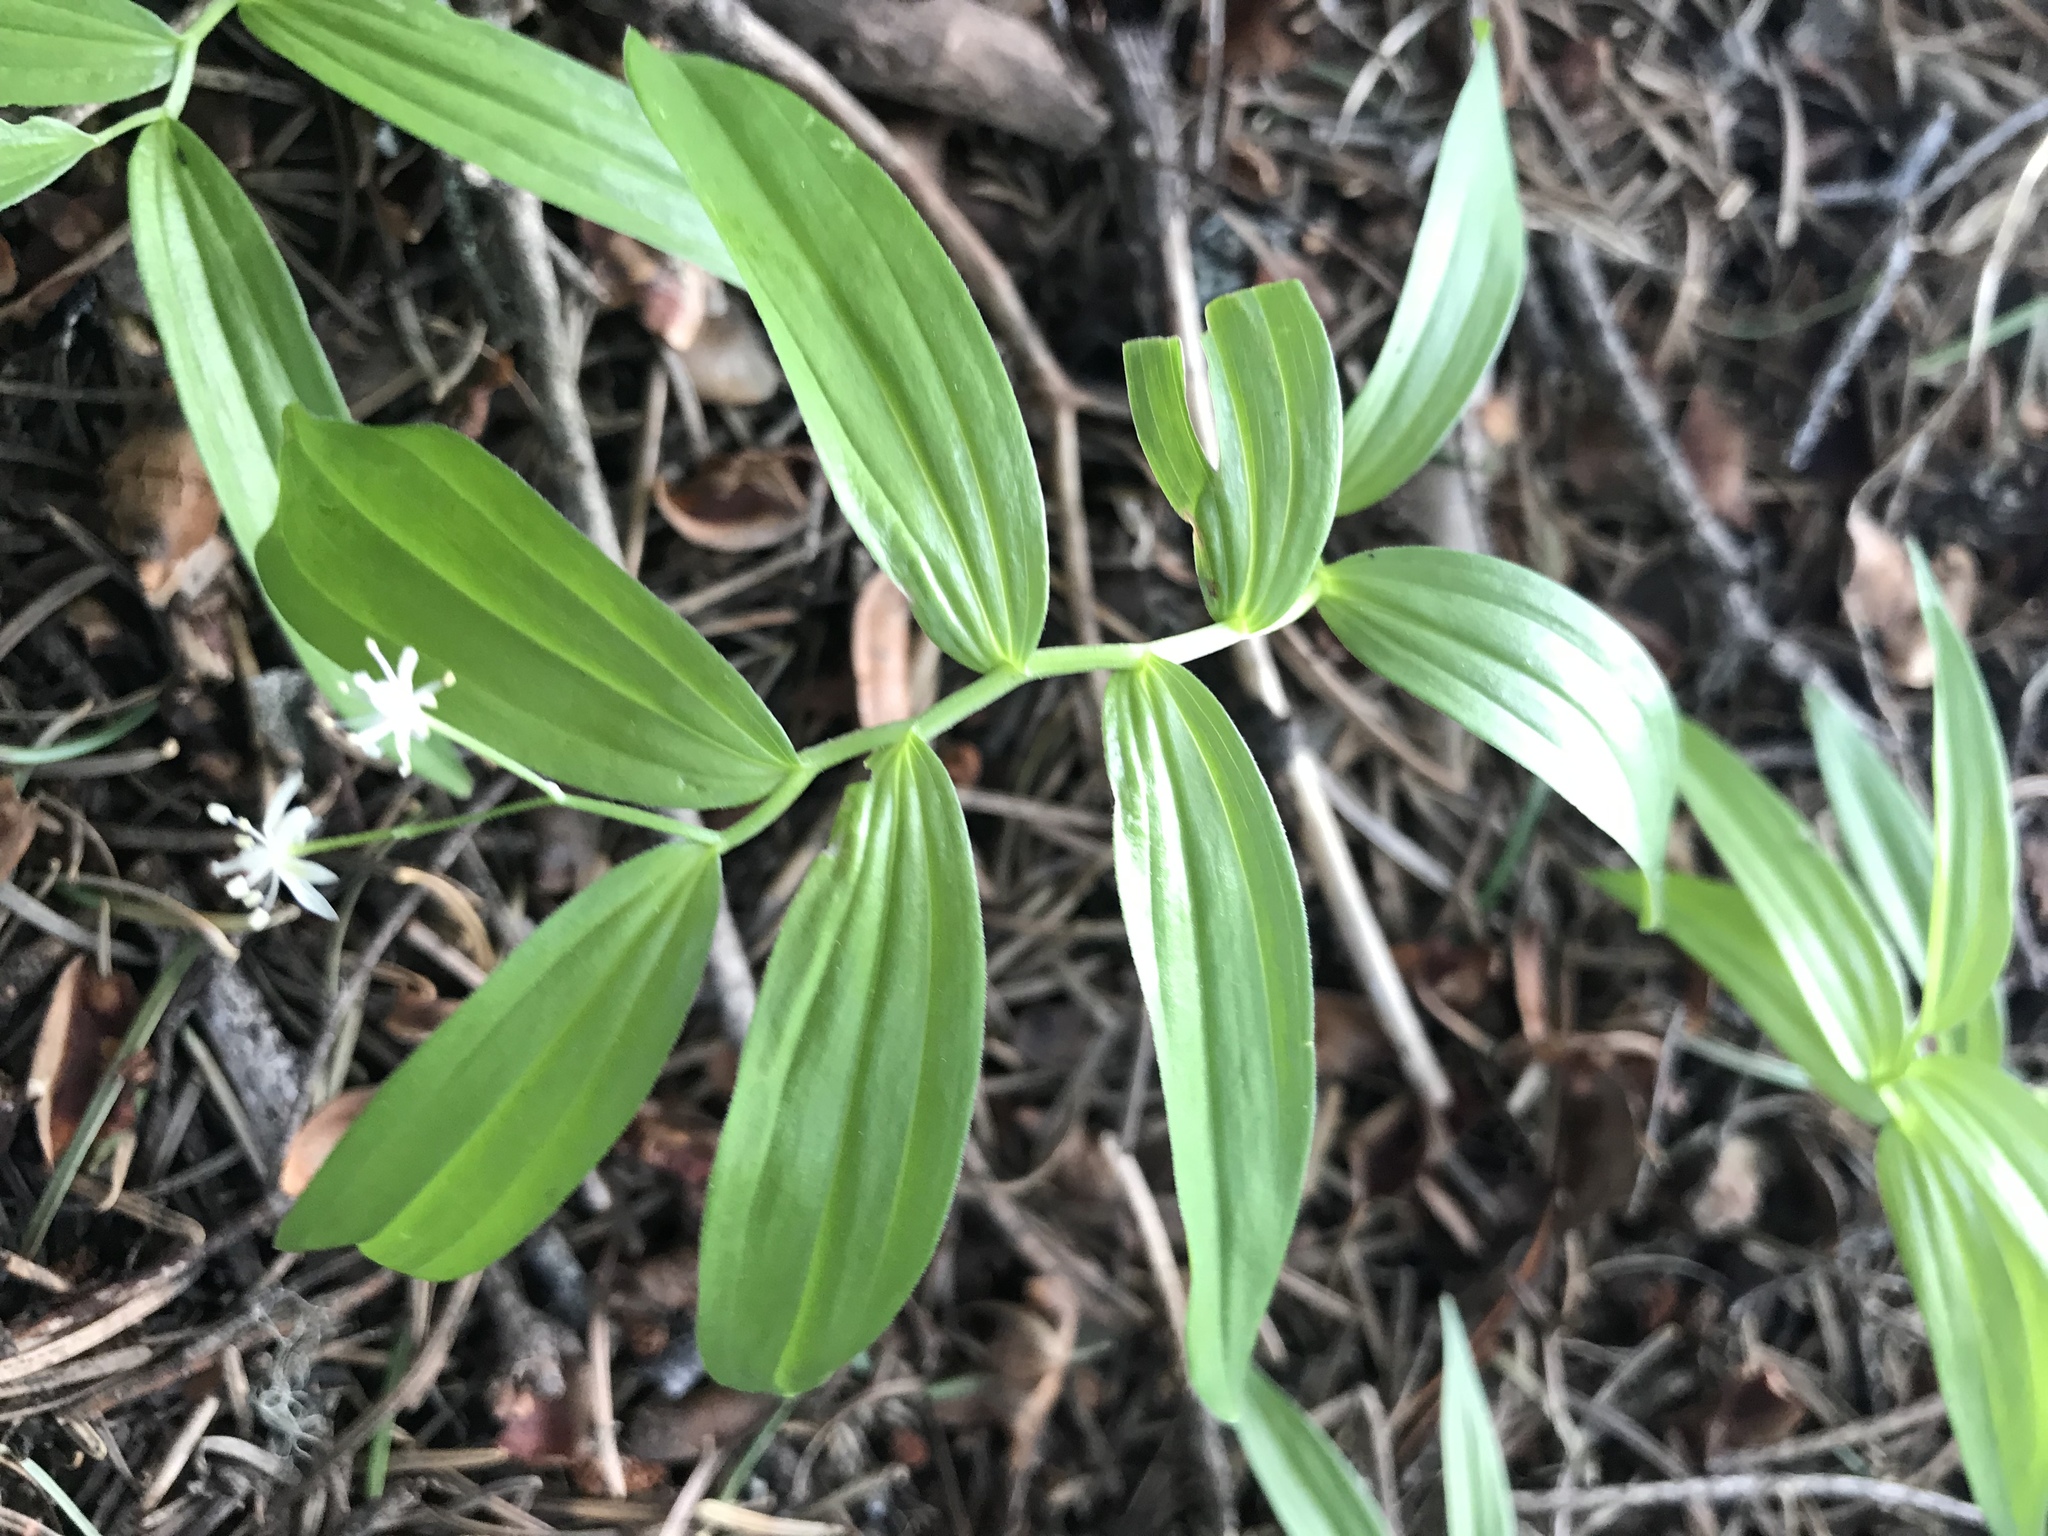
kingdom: Plantae
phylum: Tracheophyta
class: Liliopsida
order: Asparagales
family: Asparagaceae
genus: Maianthemum
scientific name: Maianthemum stellatum
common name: Little false solomon's seal
